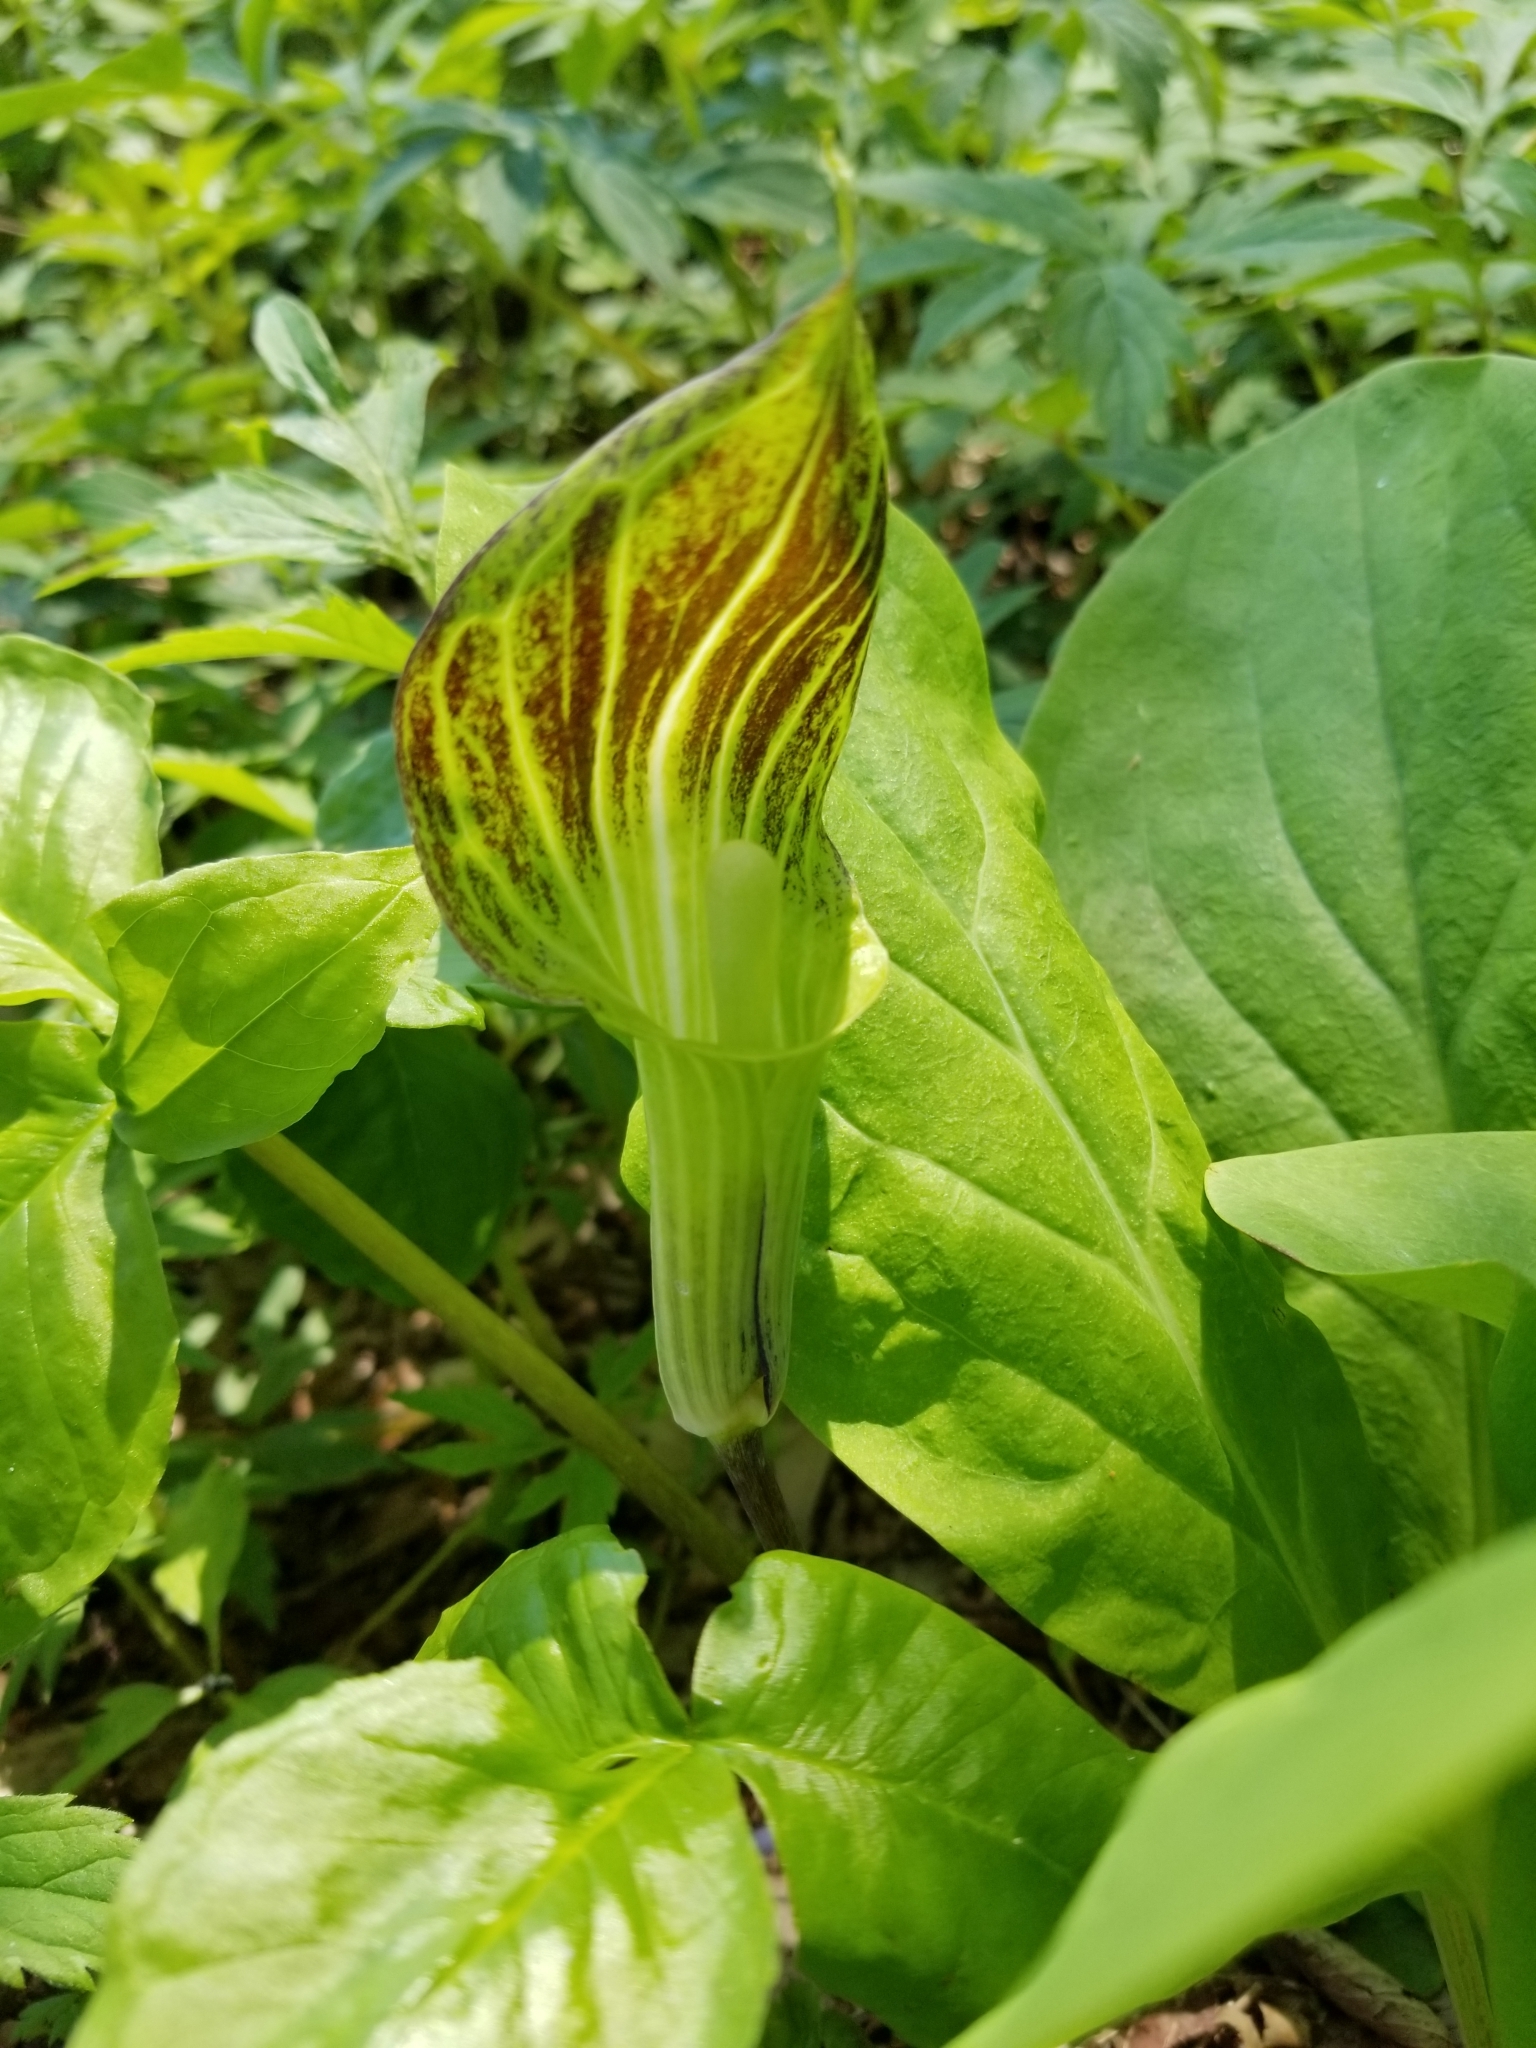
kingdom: Plantae
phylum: Tracheophyta
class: Liliopsida
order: Alismatales
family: Araceae
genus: Arisaema
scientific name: Arisaema triphyllum
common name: Jack-in-the-pulpit
